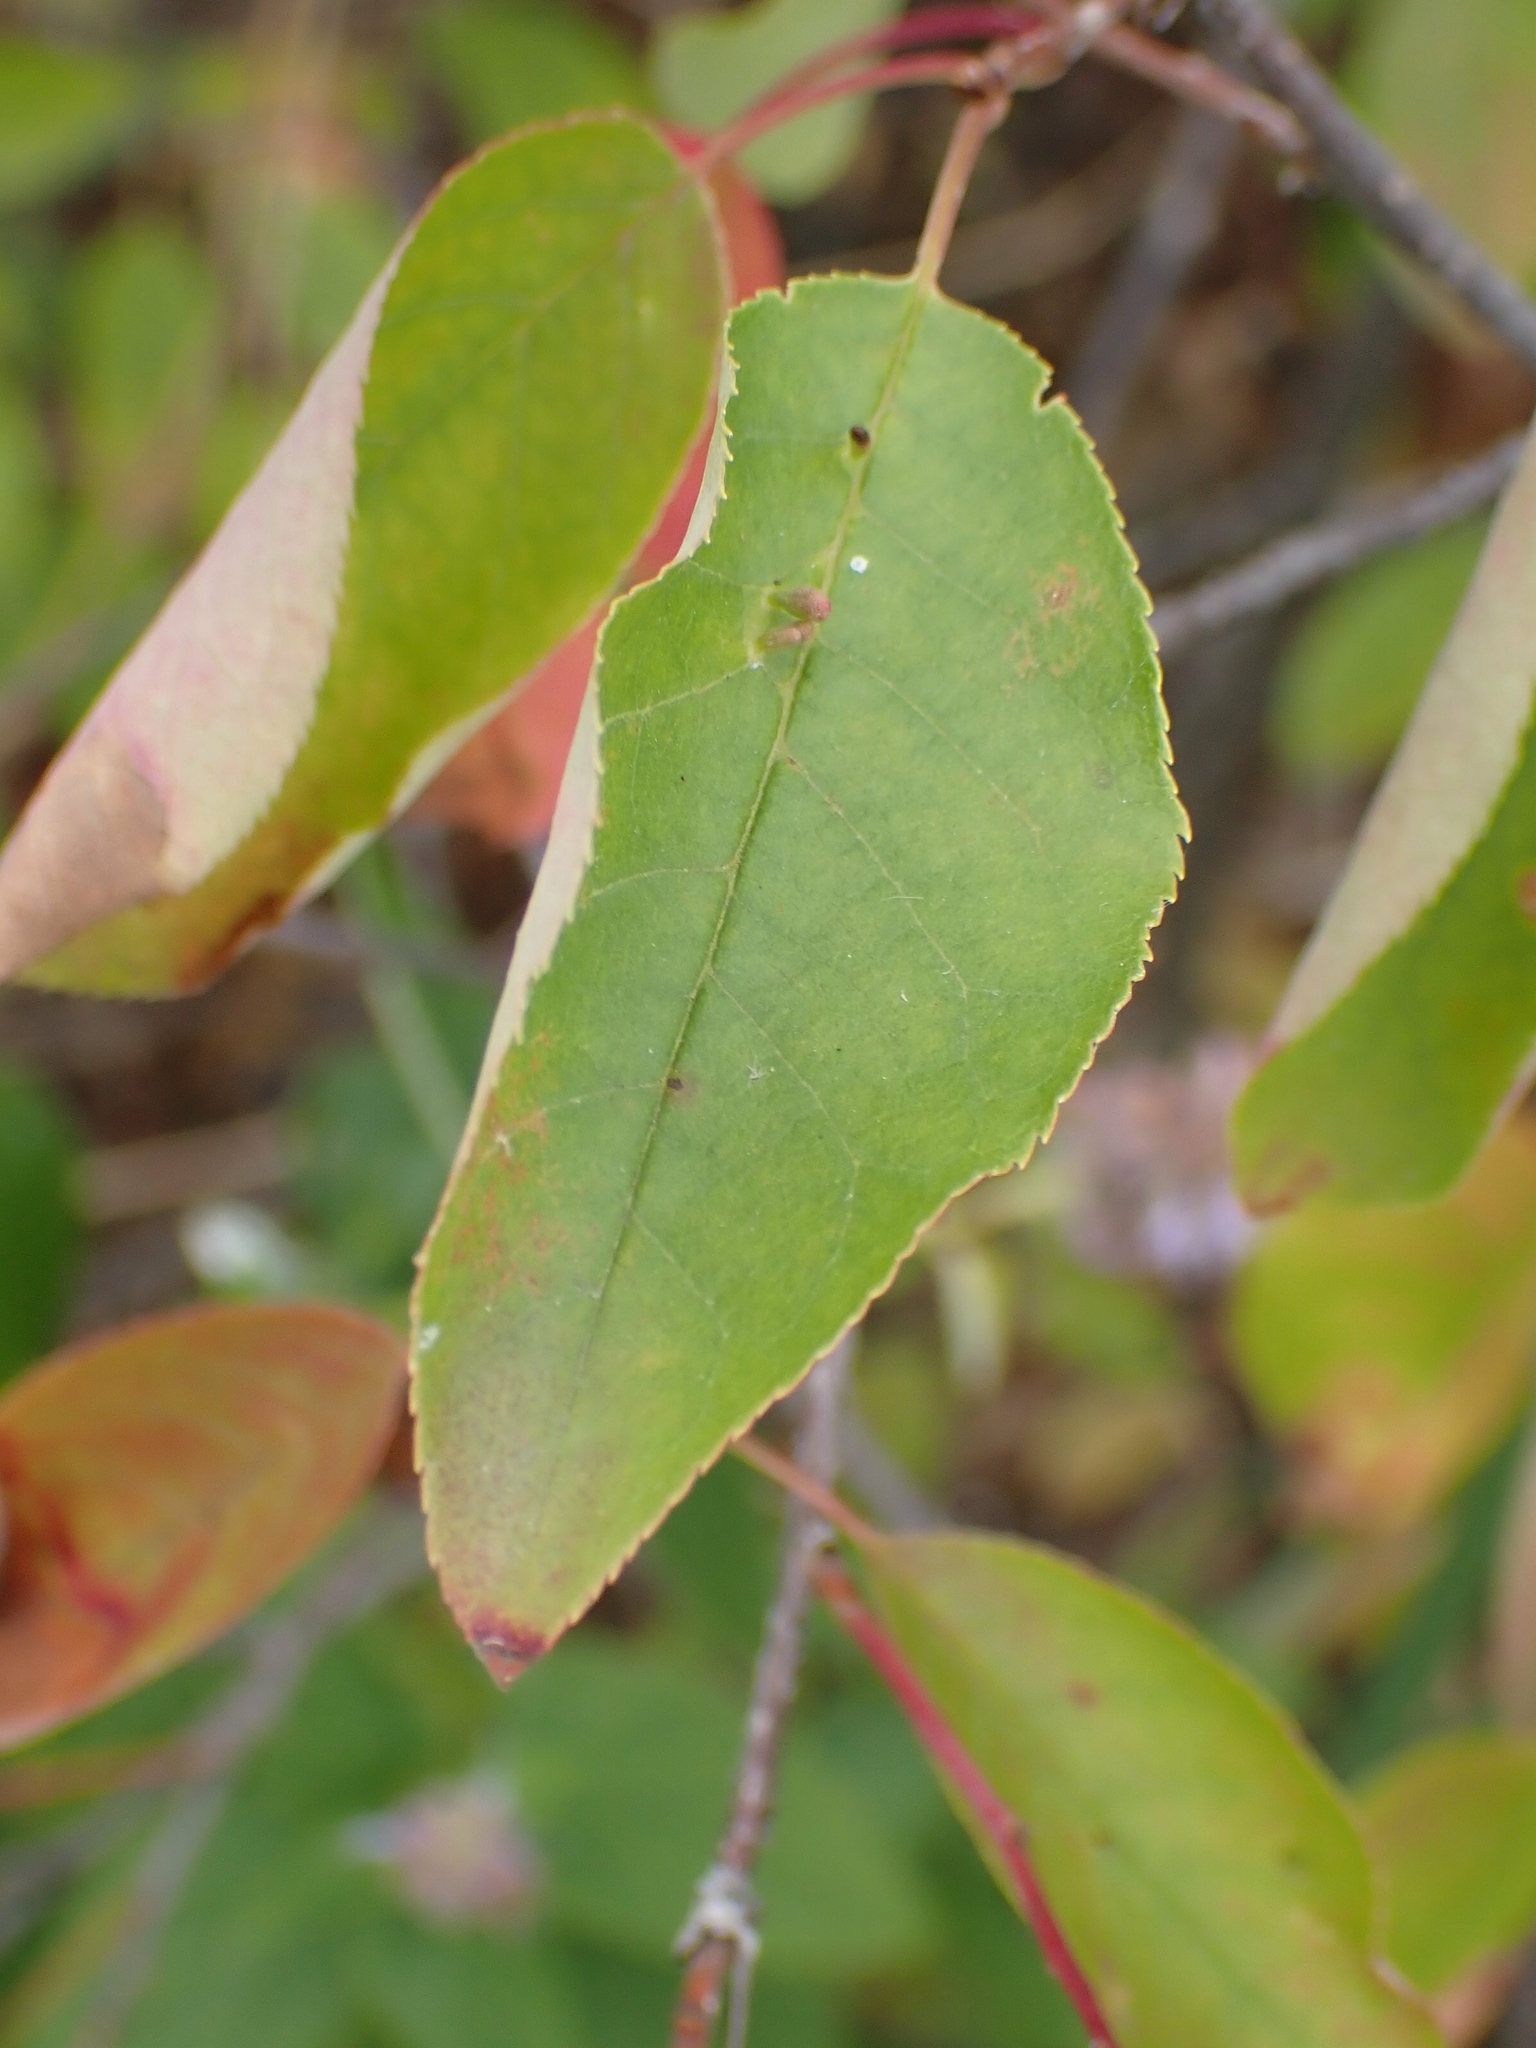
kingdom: Animalia
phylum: Arthropoda
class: Arachnida
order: Trombidiformes
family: Eriophyidae
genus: Eriophyes
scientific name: Eriophyes emarginatae
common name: Plum leaf gall mite
